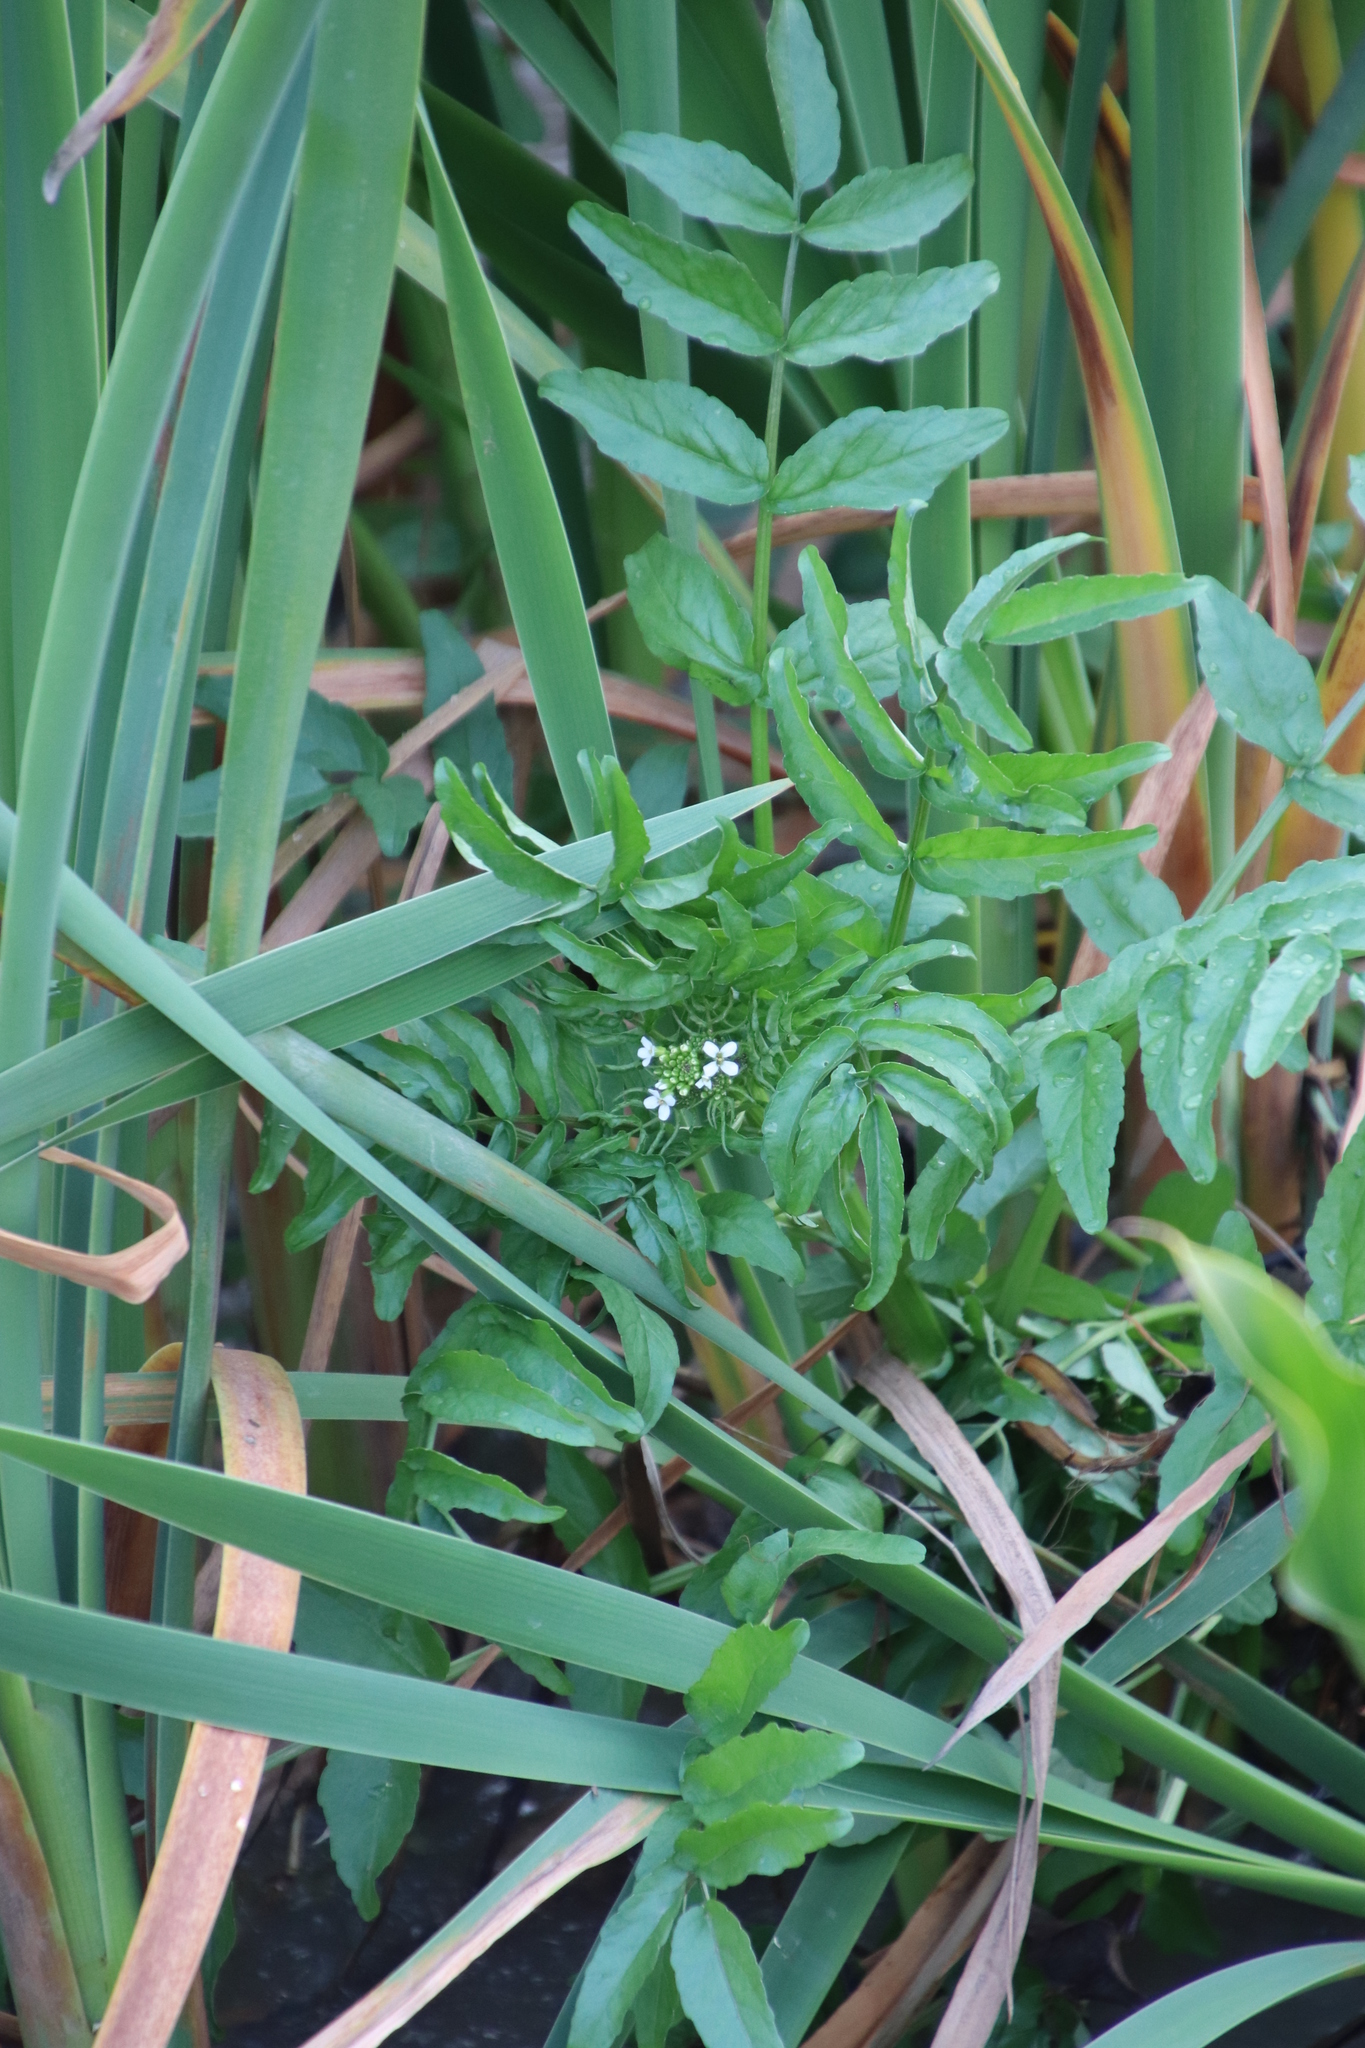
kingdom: Plantae
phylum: Tracheophyta
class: Magnoliopsida
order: Brassicales
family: Brassicaceae
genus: Nasturtium
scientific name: Nasturtium officinale
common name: Watercress
